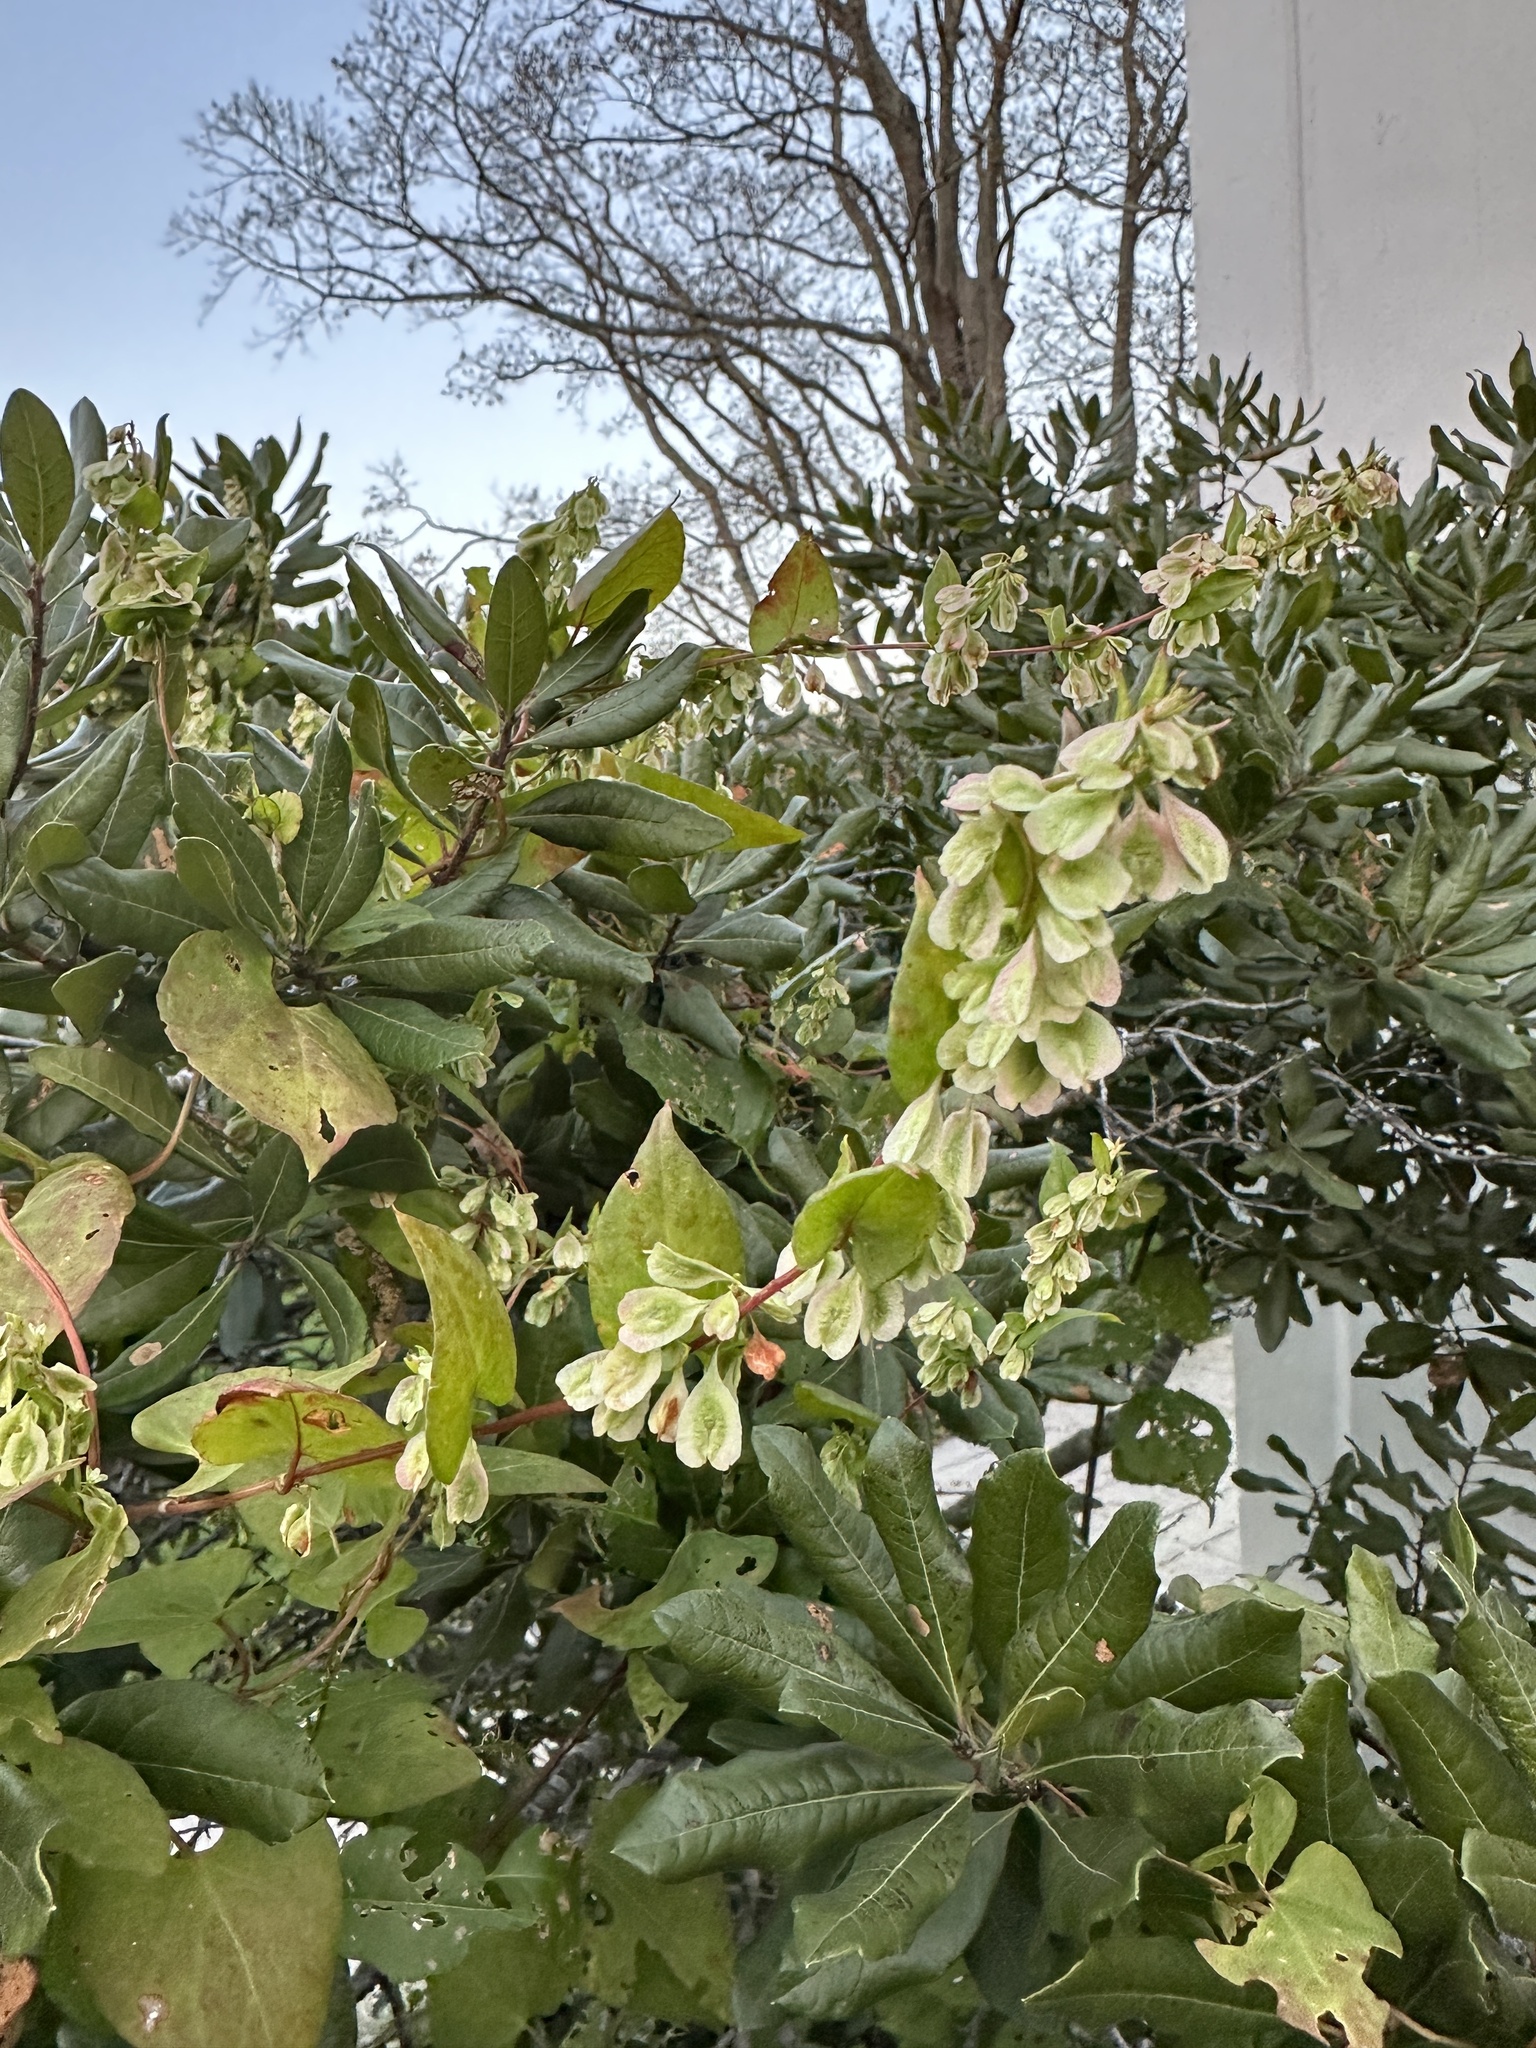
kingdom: Plantae
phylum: Tracheophyta
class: Magnoliopsida
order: Caryophyllales
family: Polygonaceae
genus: Fallopia
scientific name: Fallopia scandens
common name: Climbing false buckwheat
